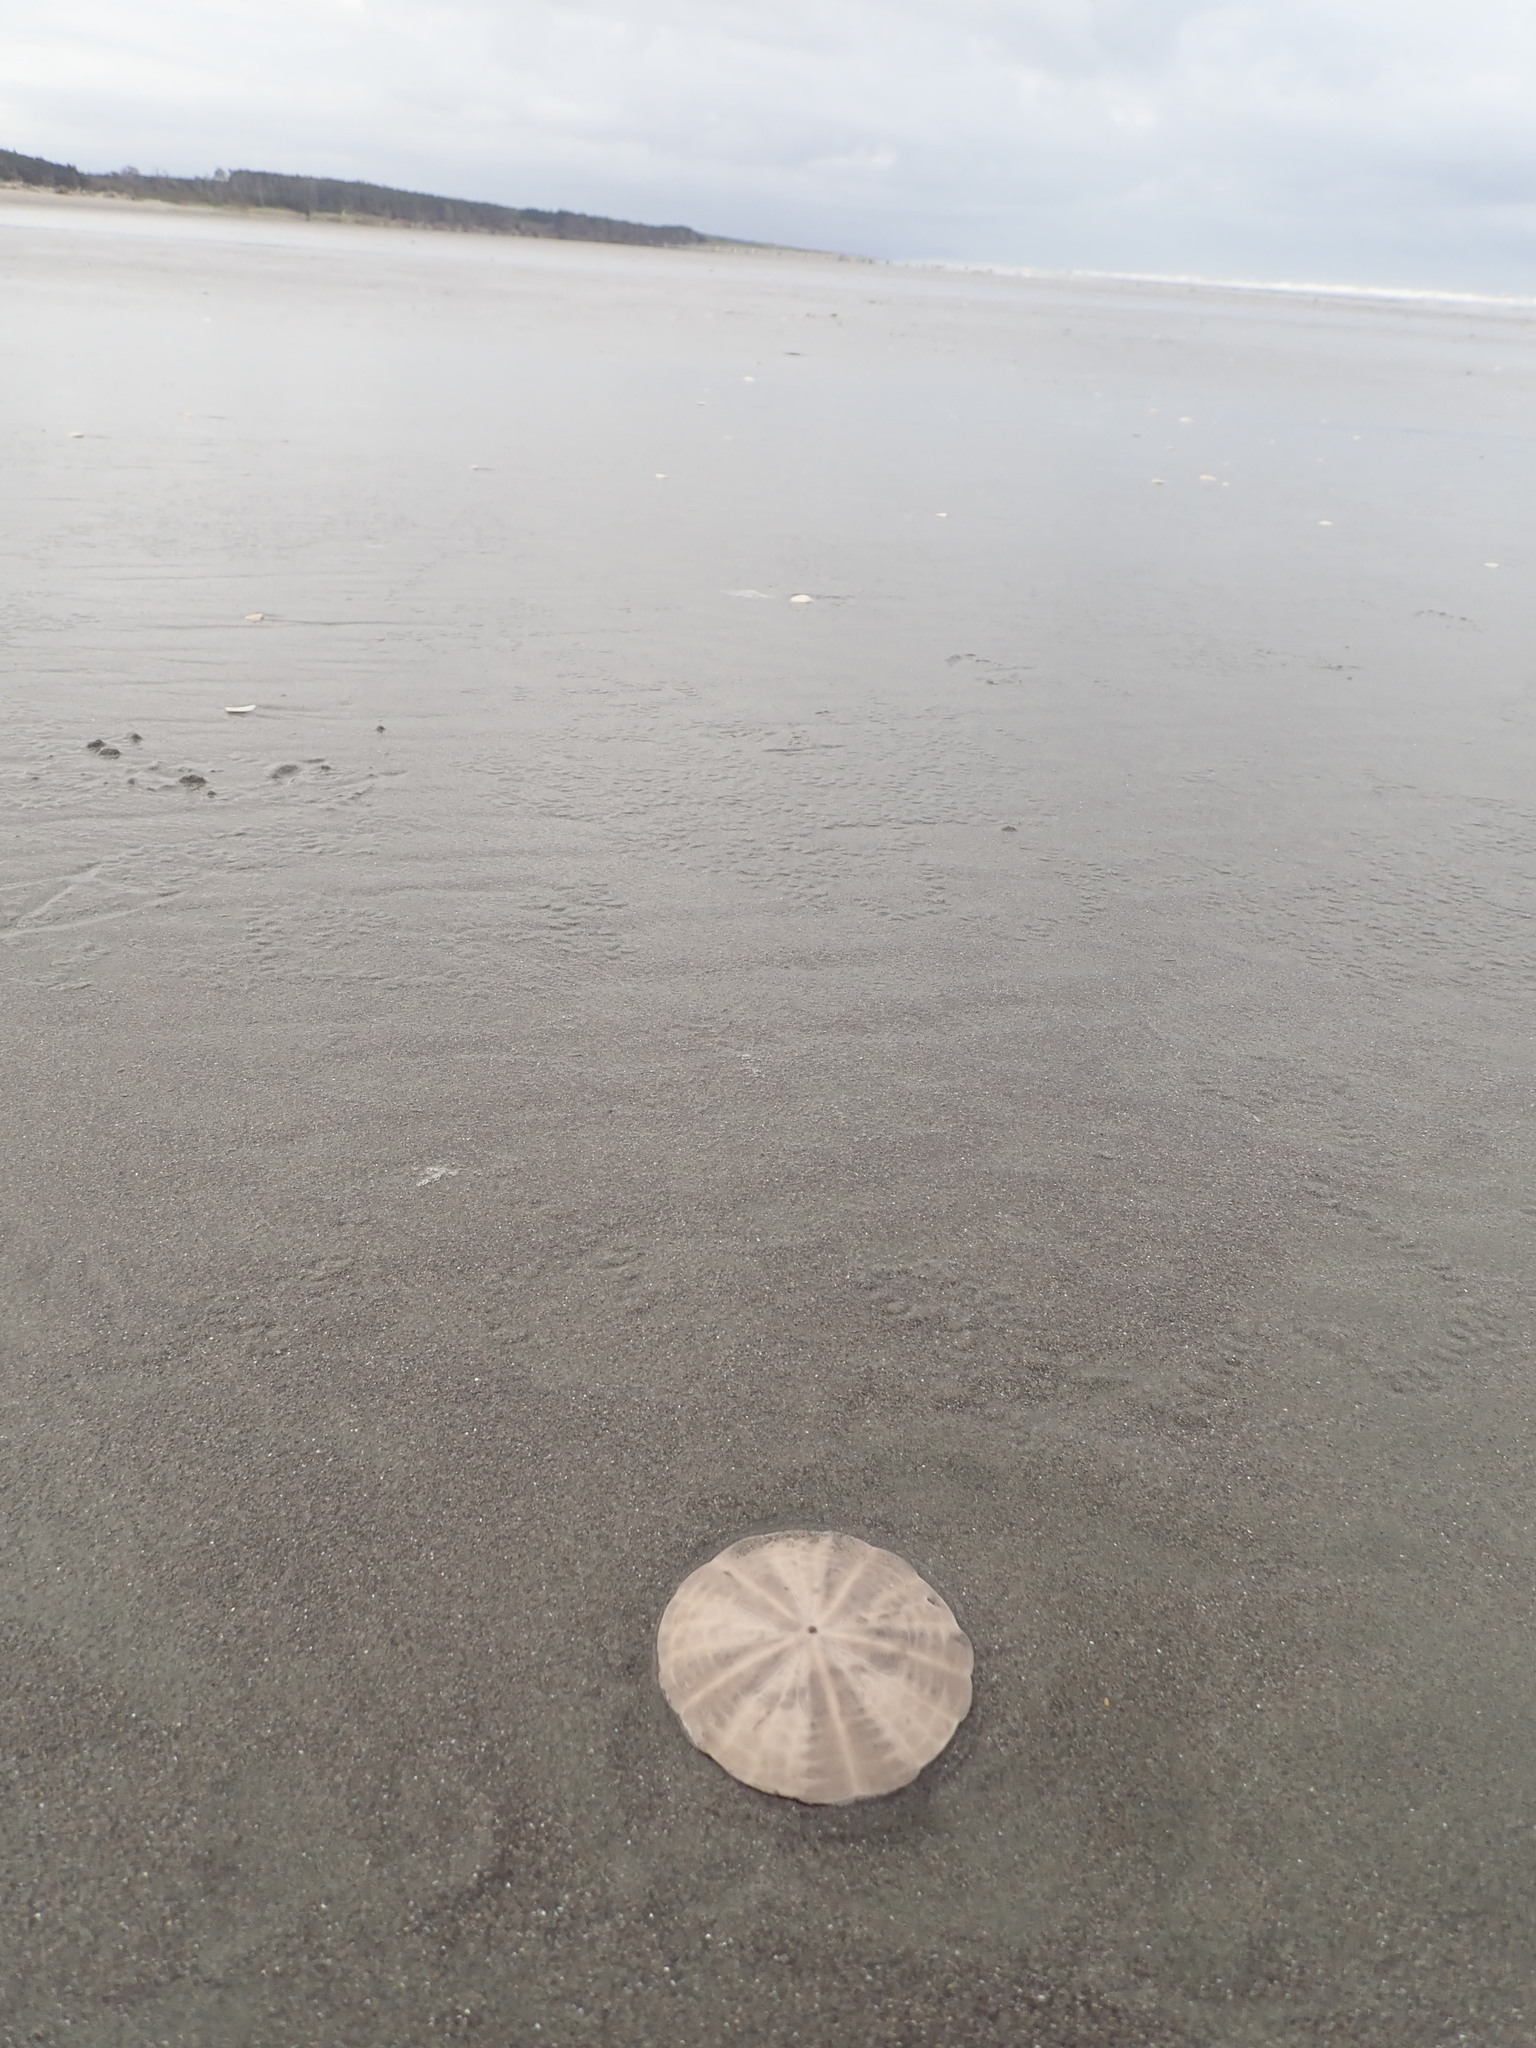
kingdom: Animalia
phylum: Echinodermata
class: Echinoidea
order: Clypeasteroida
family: Clypeasteridae
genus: Fellaster
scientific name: Fellaster zelandiae
